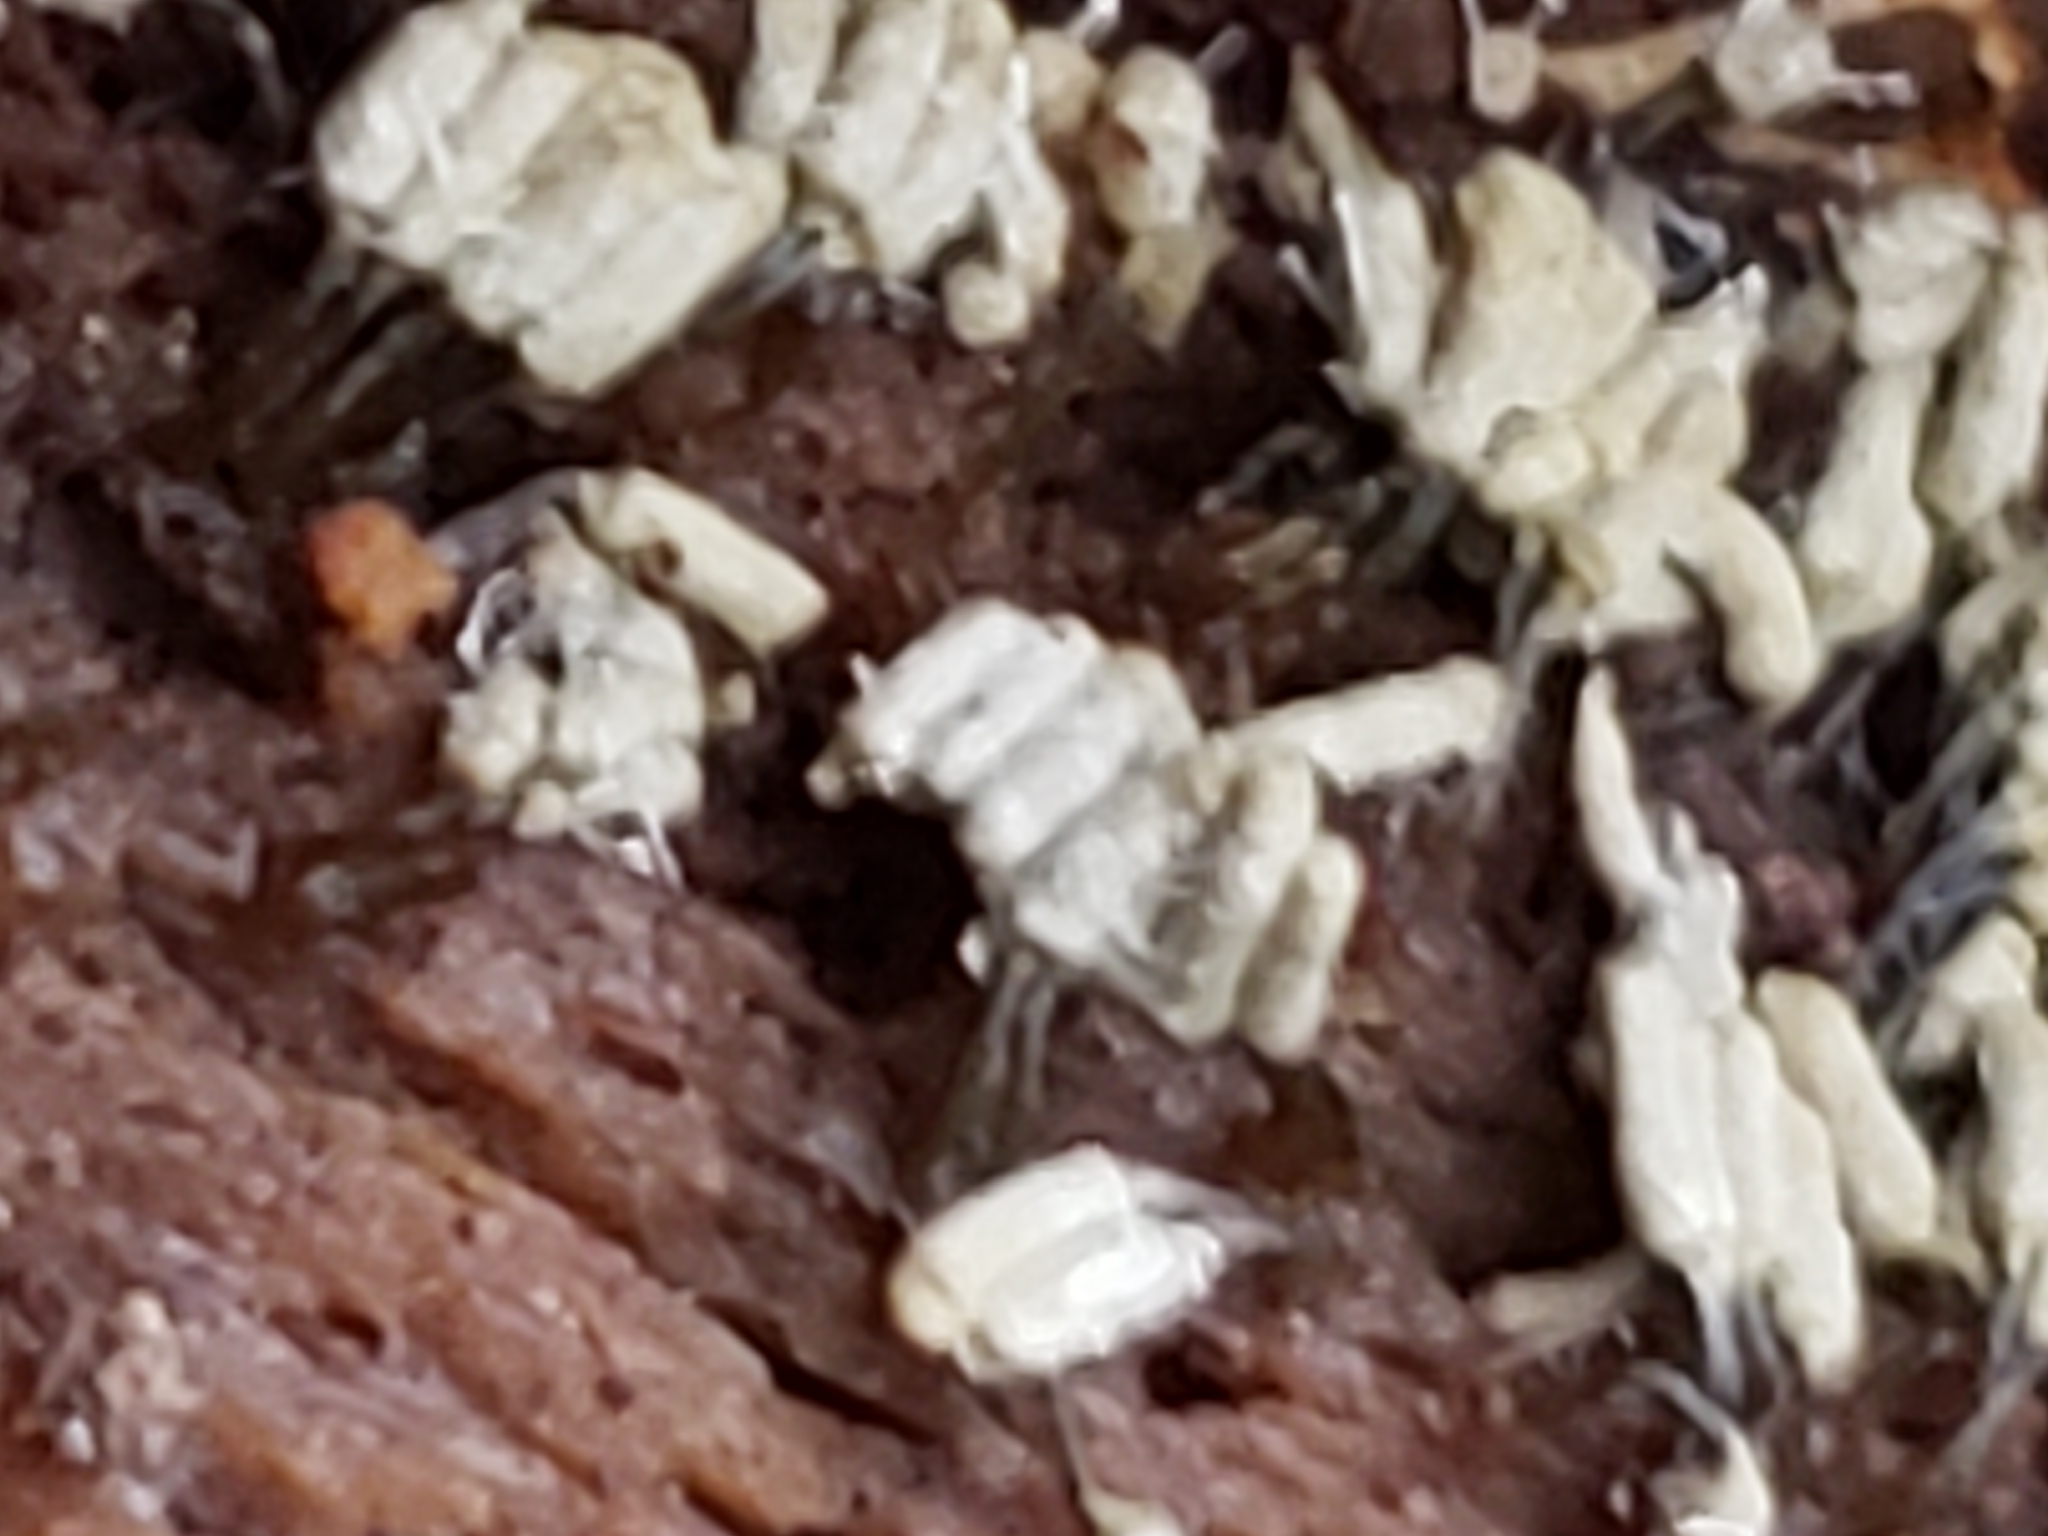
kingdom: Protozoa
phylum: Mycetozoa
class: Myxomycetes
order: Trichiales
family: Arcyriaceae
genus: Arcyria
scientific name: Arcyria cinerea
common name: White carnival candy slime mold
